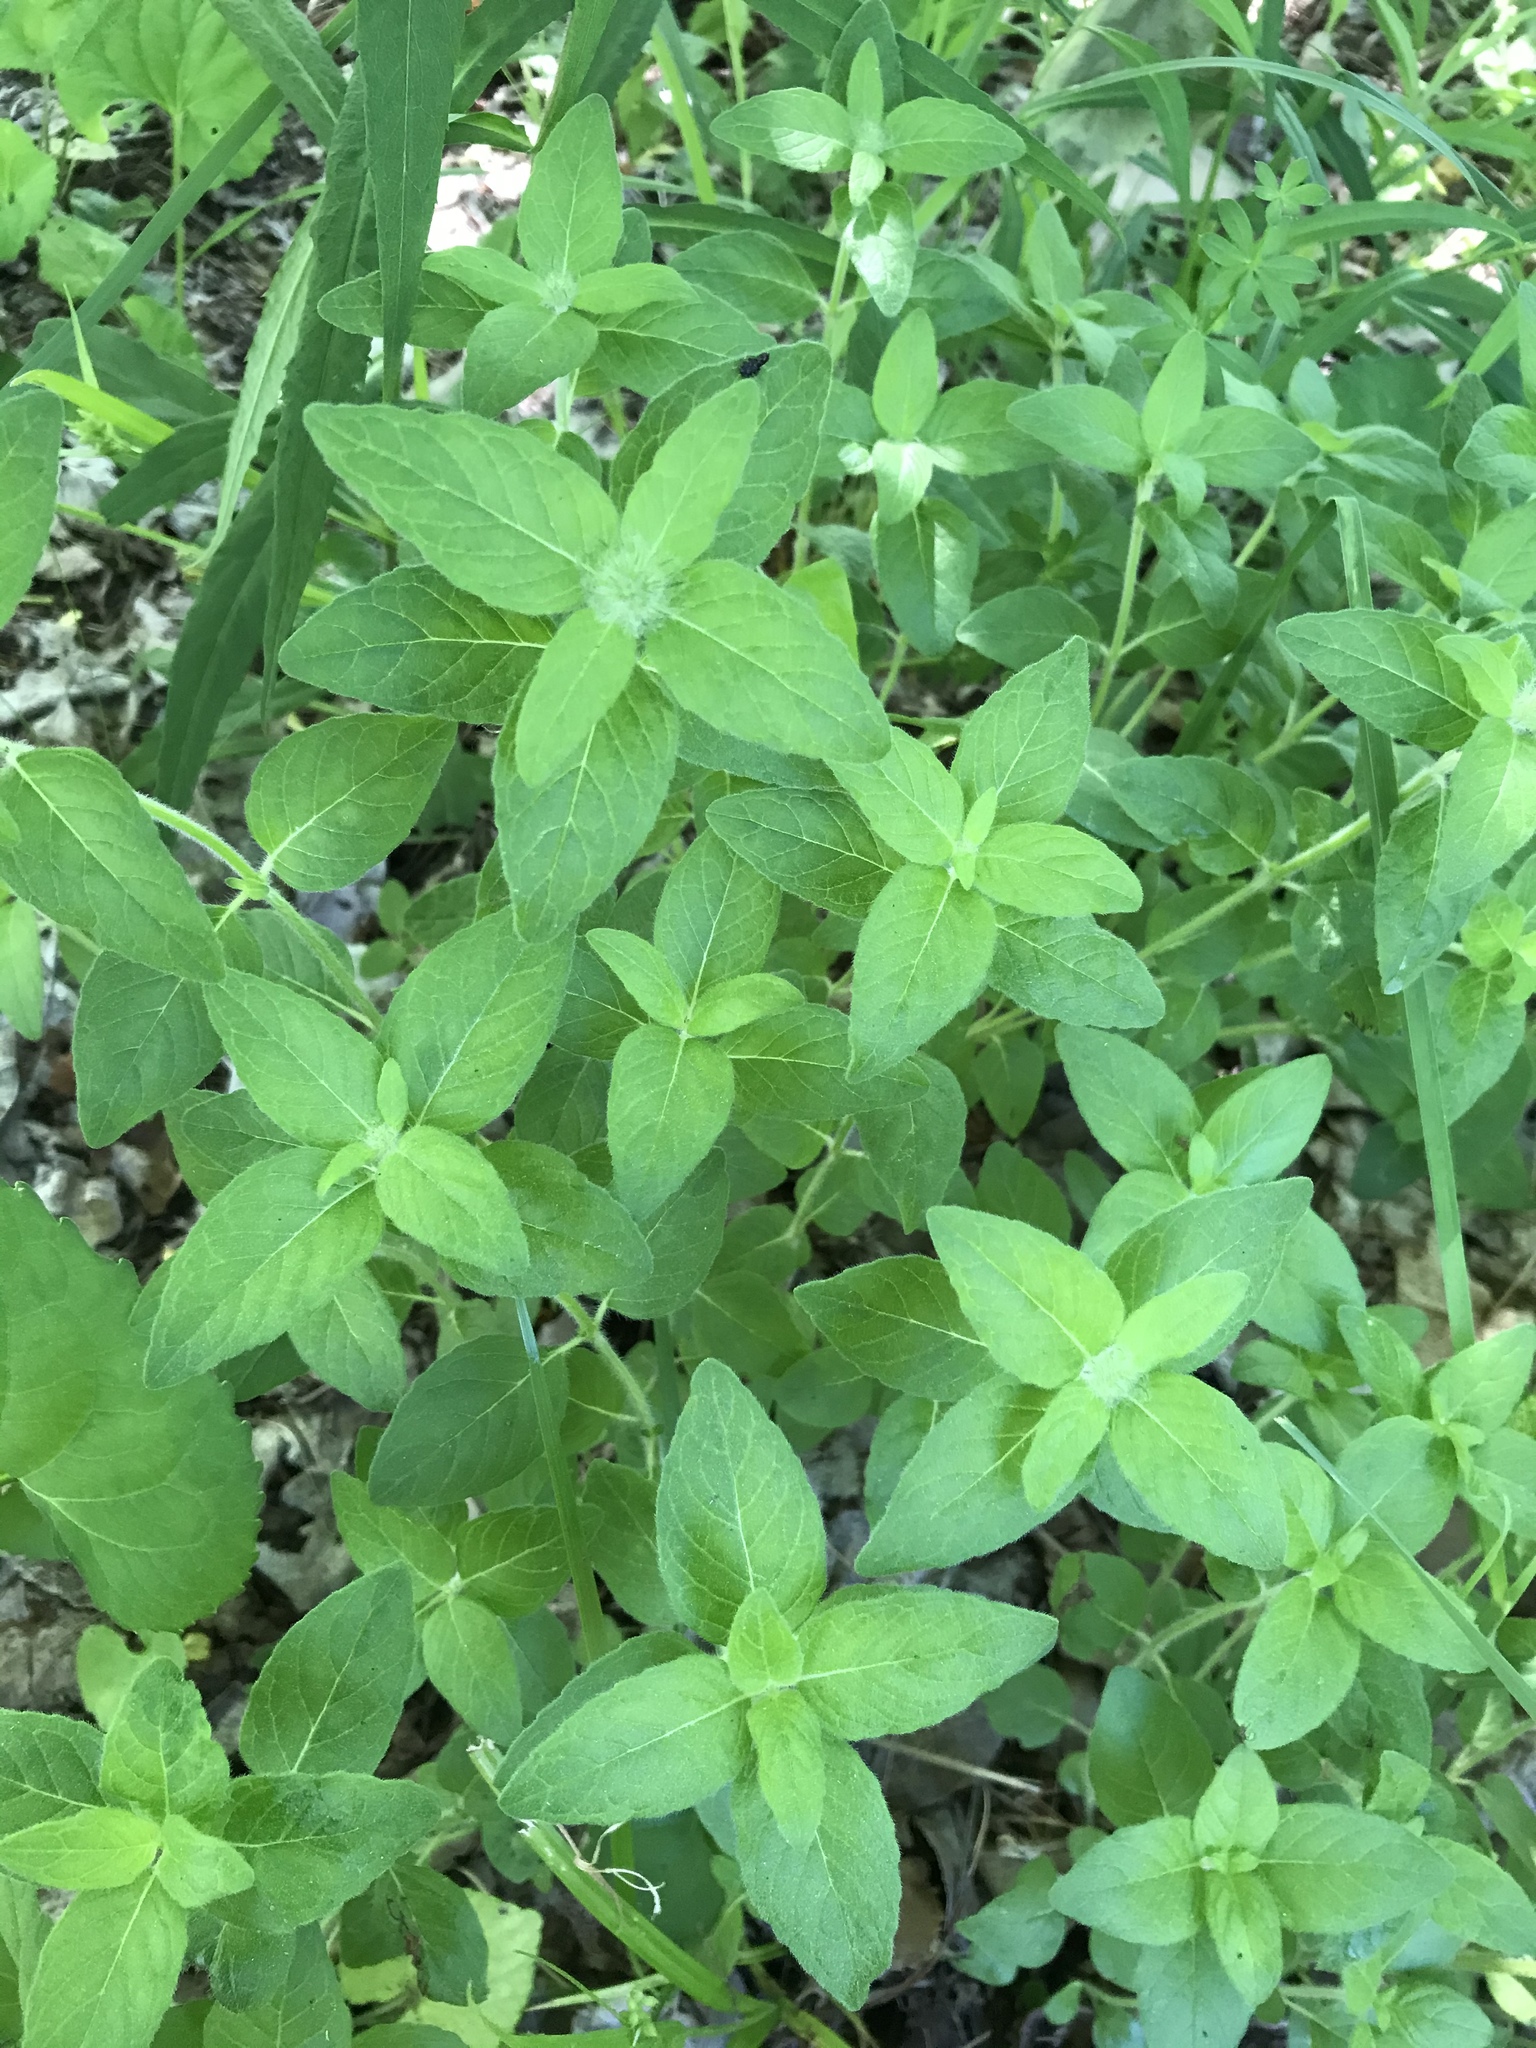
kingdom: Plantae
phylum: Tracheophyta
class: Magnoliopsida
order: Lamiales
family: Lamiaceae
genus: Clinopodium
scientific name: Clinopodium vulgare
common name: Wild basil
